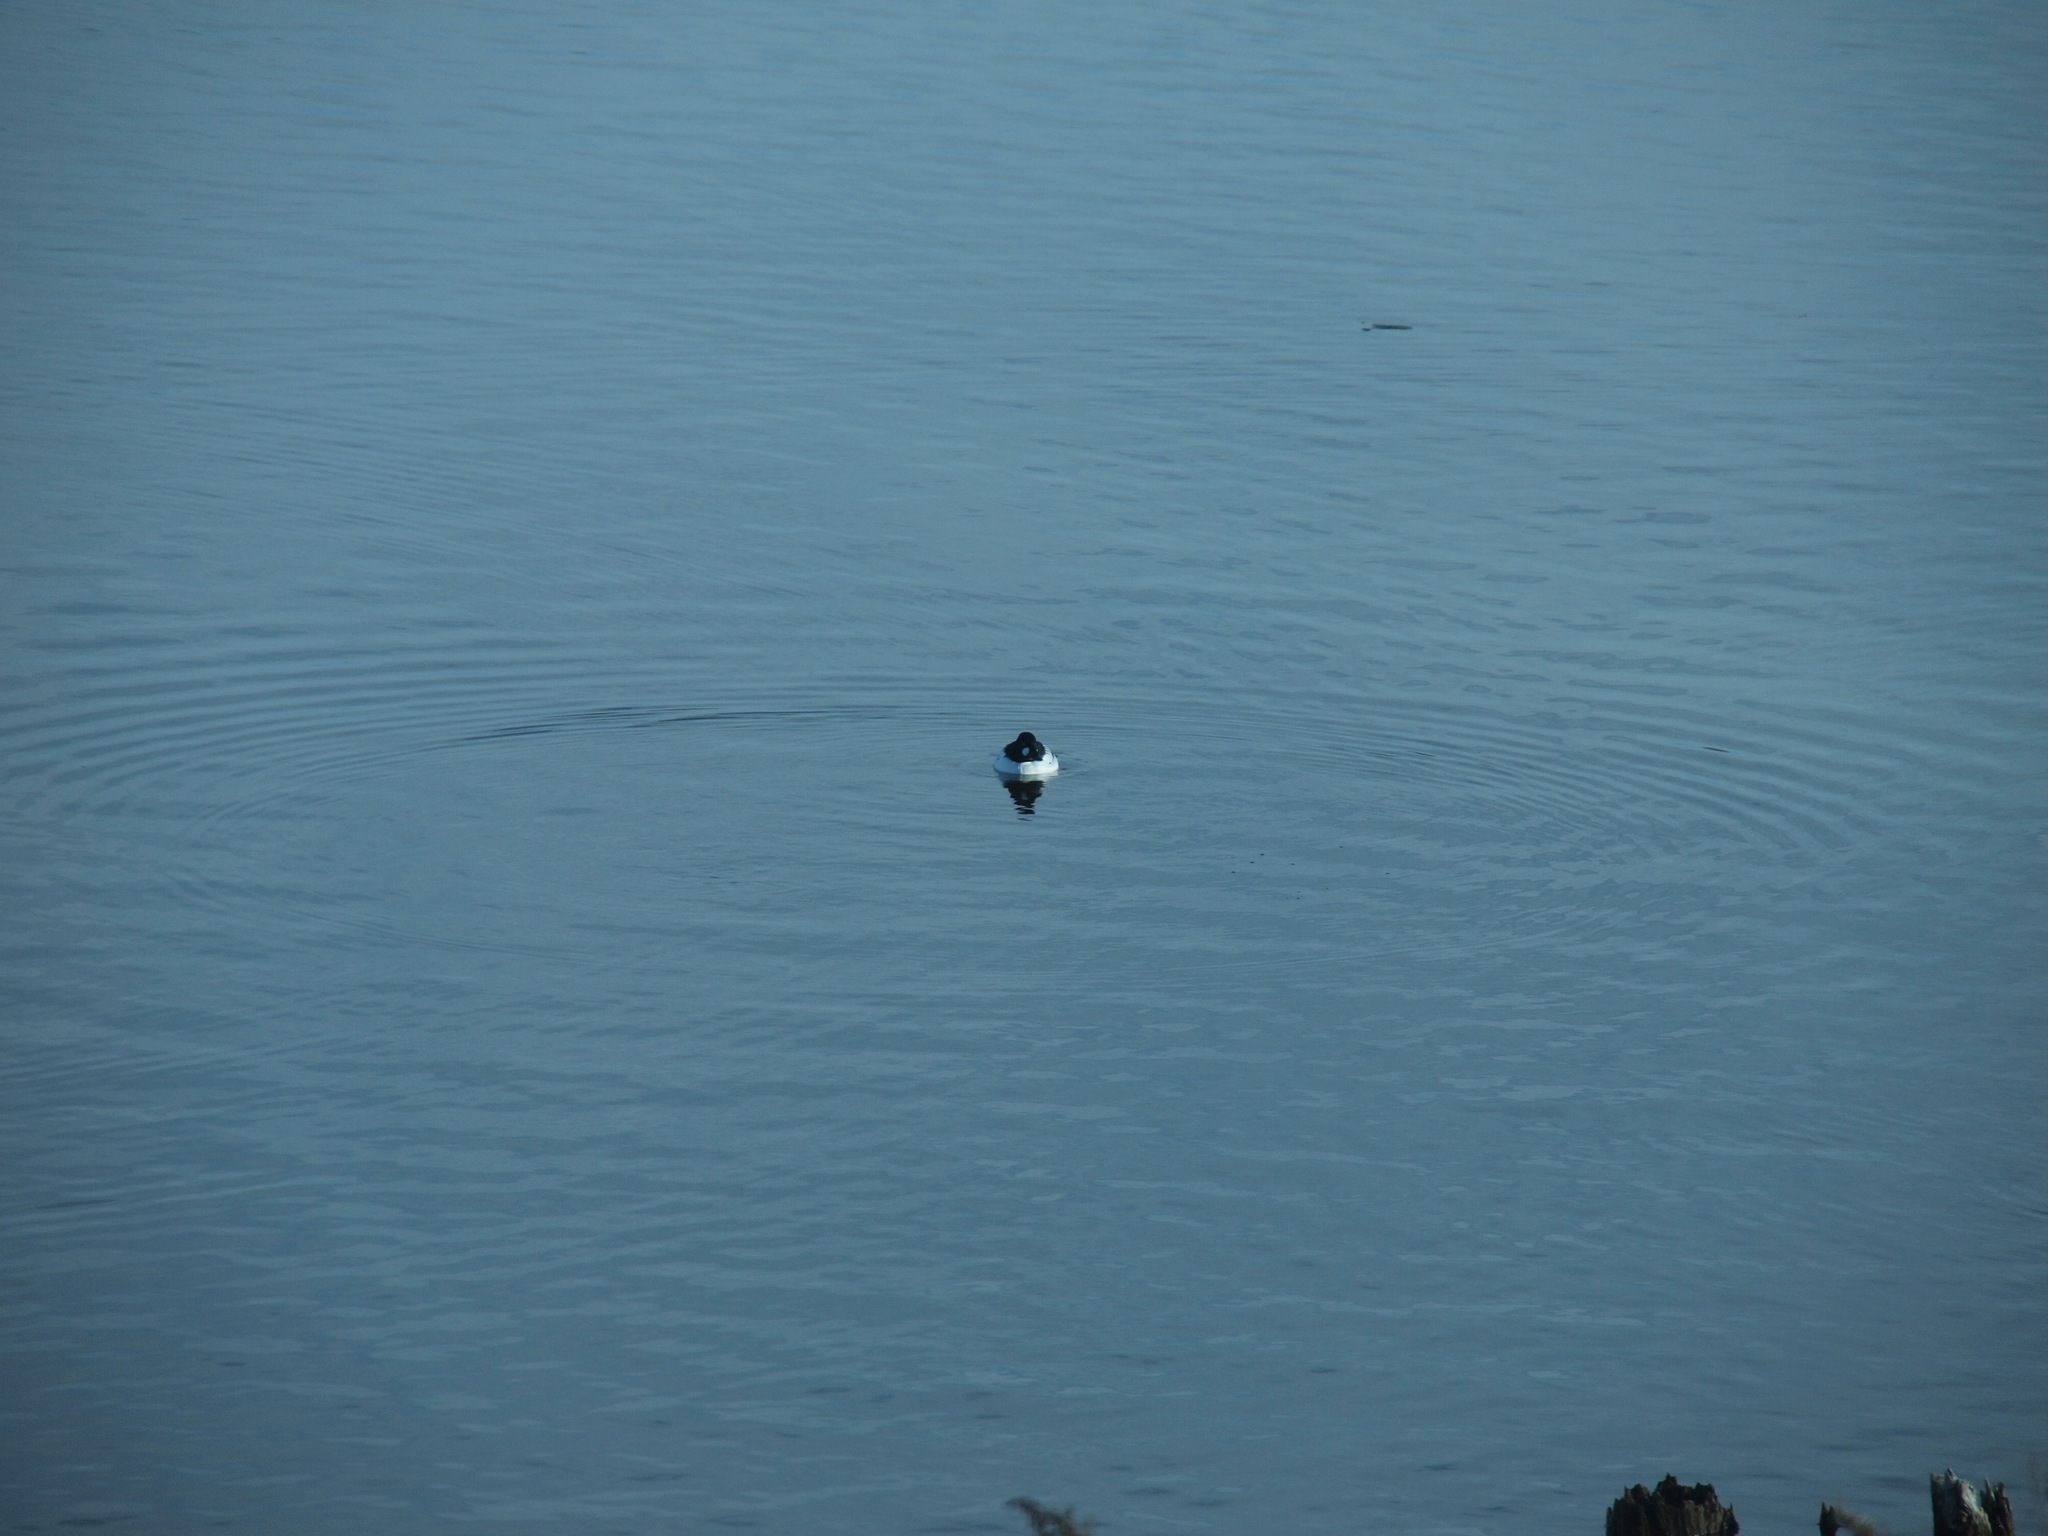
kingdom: Animalia
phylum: Chordata
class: Aves
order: Anseriformes
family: Anatidae
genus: Bucephala
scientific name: Bucephala clangula
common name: Common goldeneye
